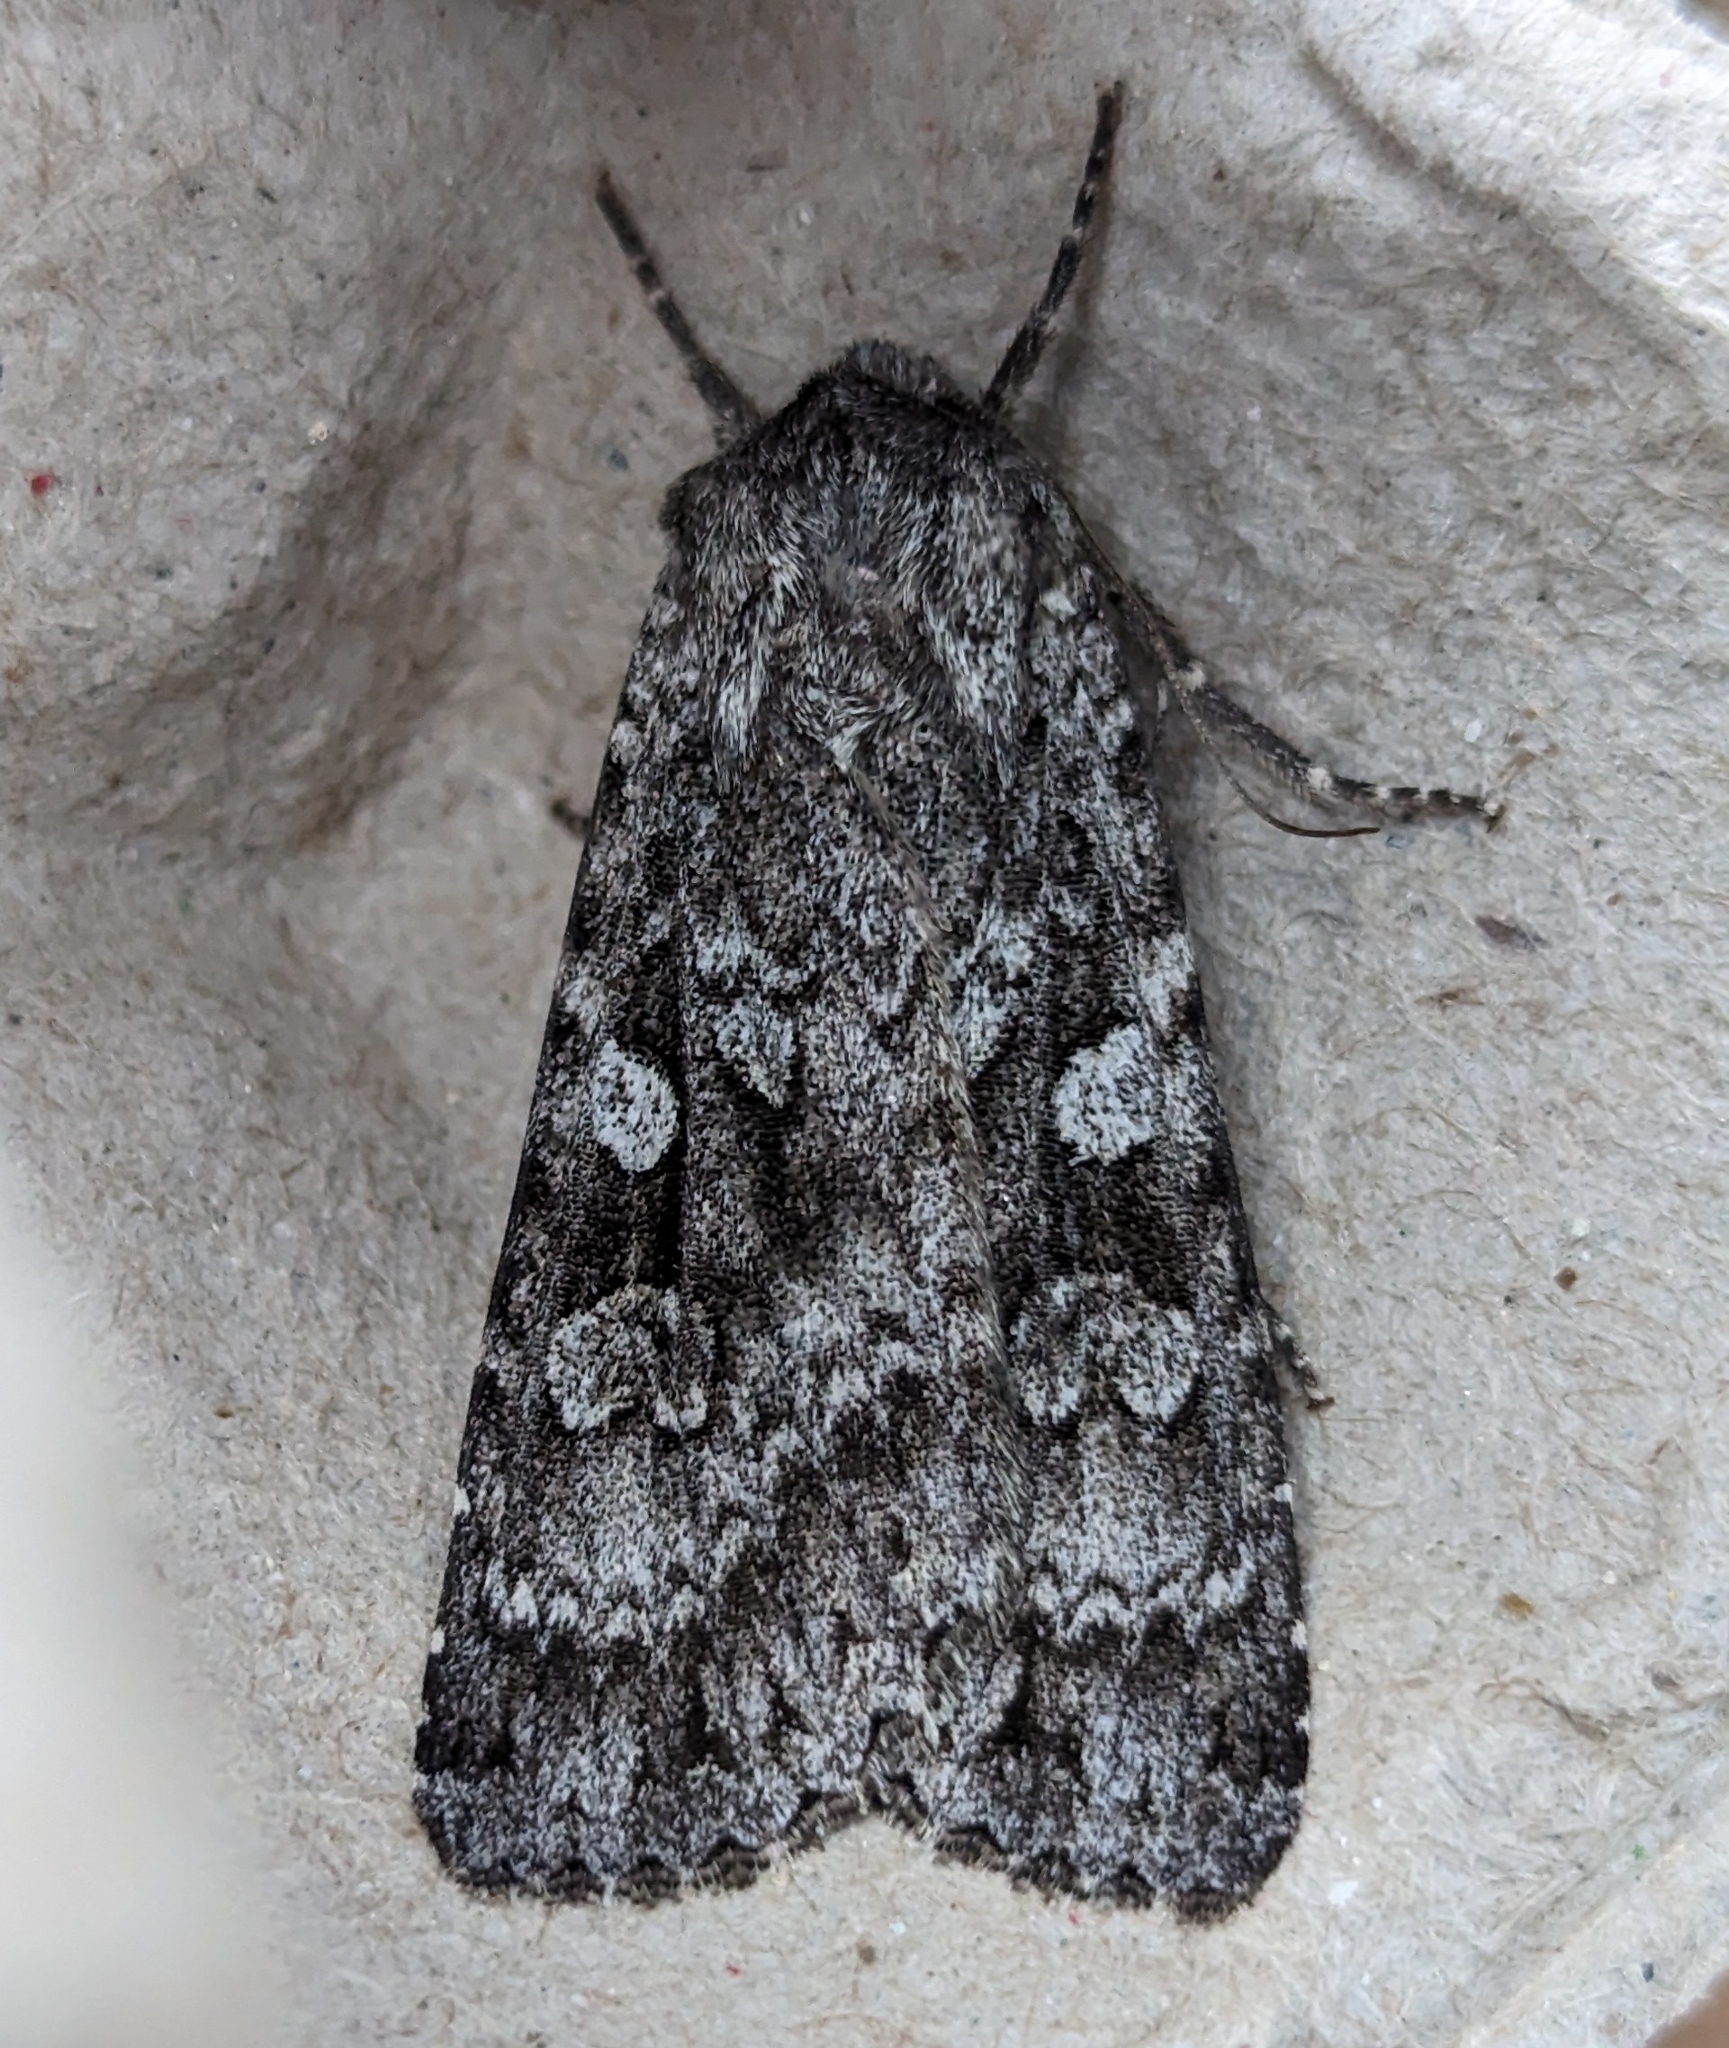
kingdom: Animalia
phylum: Arthropoda
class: Insecta
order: Lepidoptera
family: Noctuidae
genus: Eurois
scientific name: Eurois occulta
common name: Great brocade
